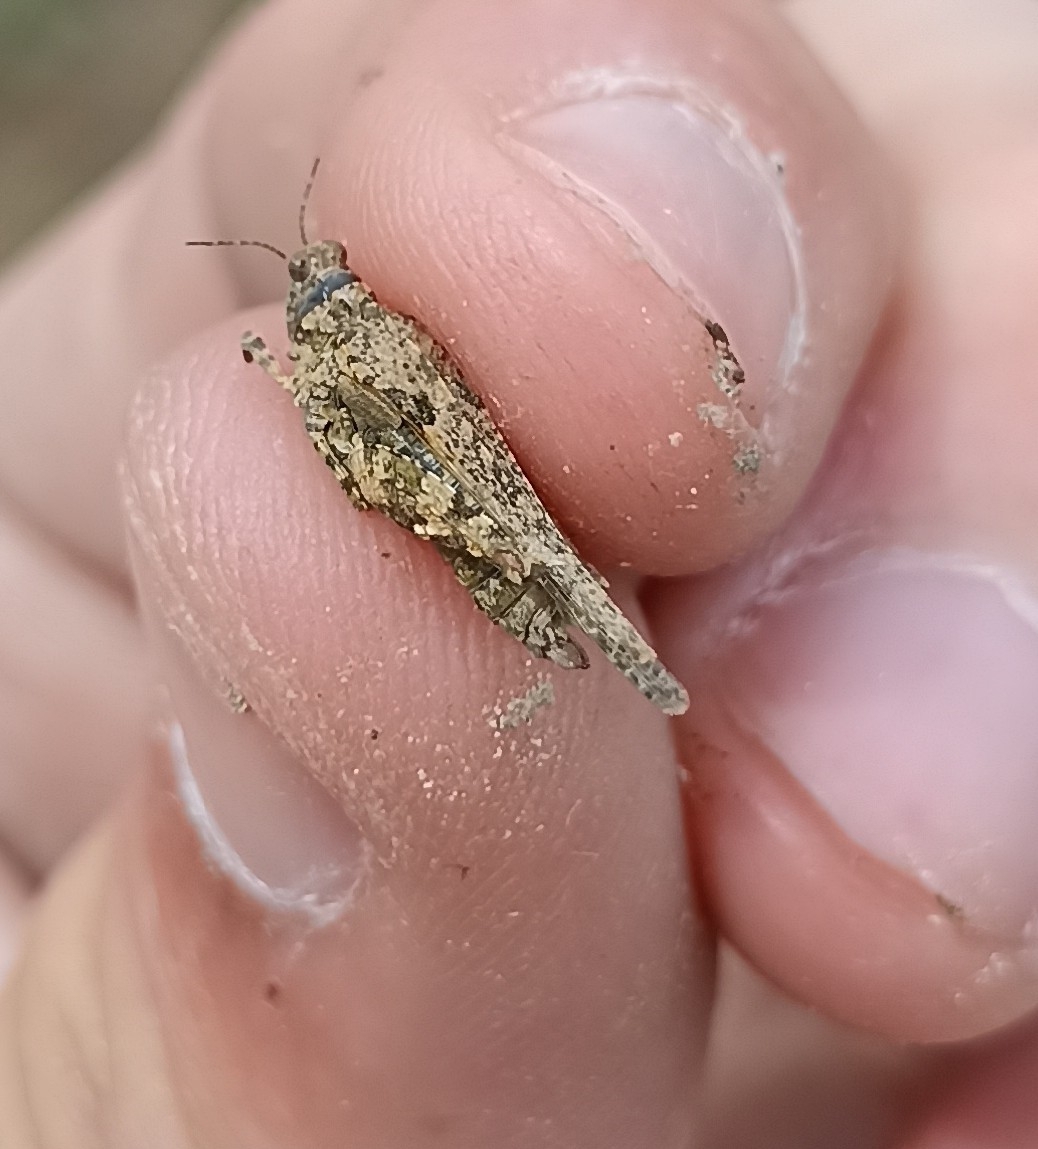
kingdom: Animalia
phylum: Arthropoda
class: Insecta
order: Orthoptera
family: Tetrigidae
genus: Paratettix
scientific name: Paratettix meridionalis
